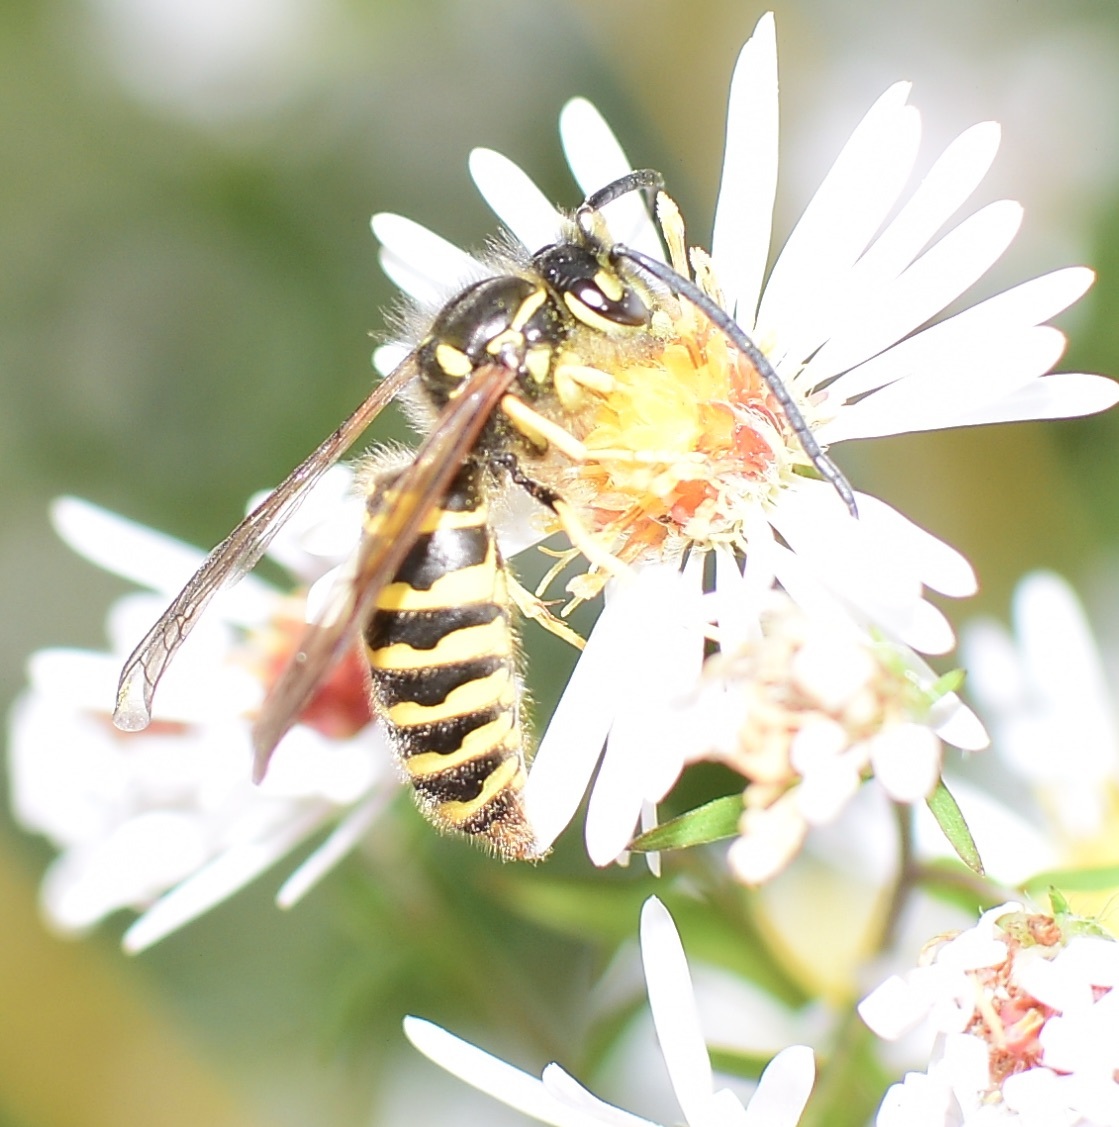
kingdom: Animalia
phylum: Arthropoda
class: Insecta
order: Hymenoptera
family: Vespidae
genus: Vespula
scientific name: Vespula maculifrons
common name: Eastern yellowjacket
